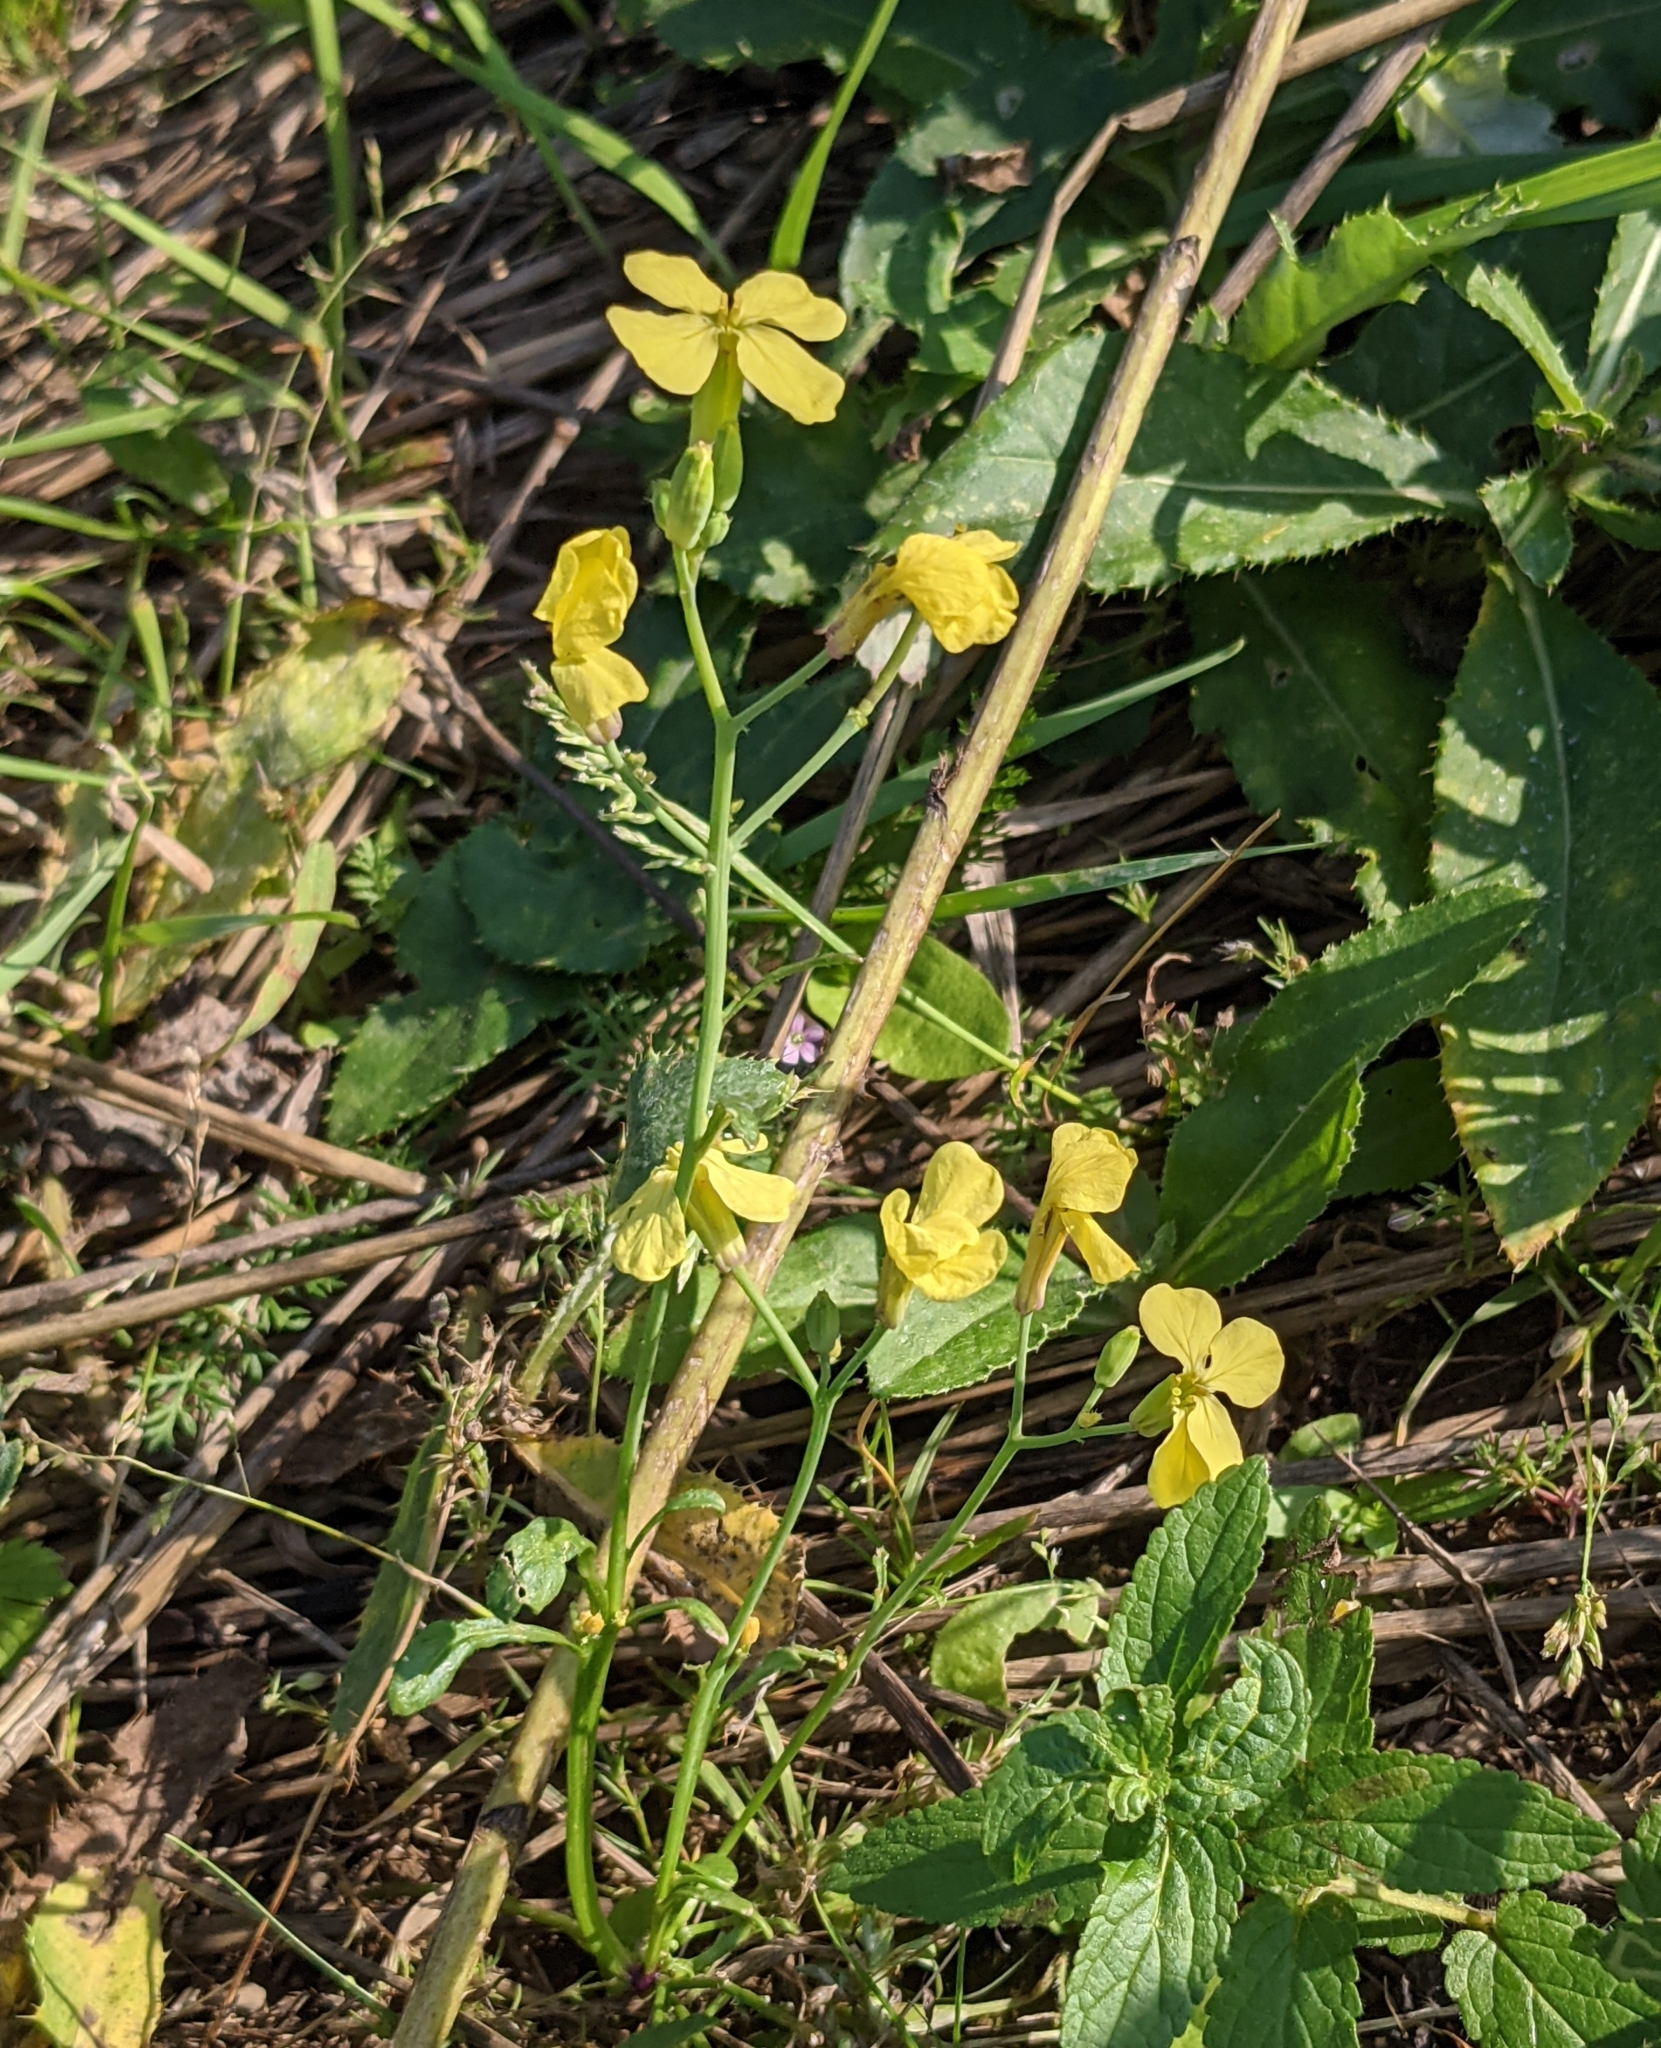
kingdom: Plantae
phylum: Tracheophyta
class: Magnoliopsida
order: Brassicales
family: Brassicaceae
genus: Raphanus
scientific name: Raphanus raphanistrum
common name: Wild radish
